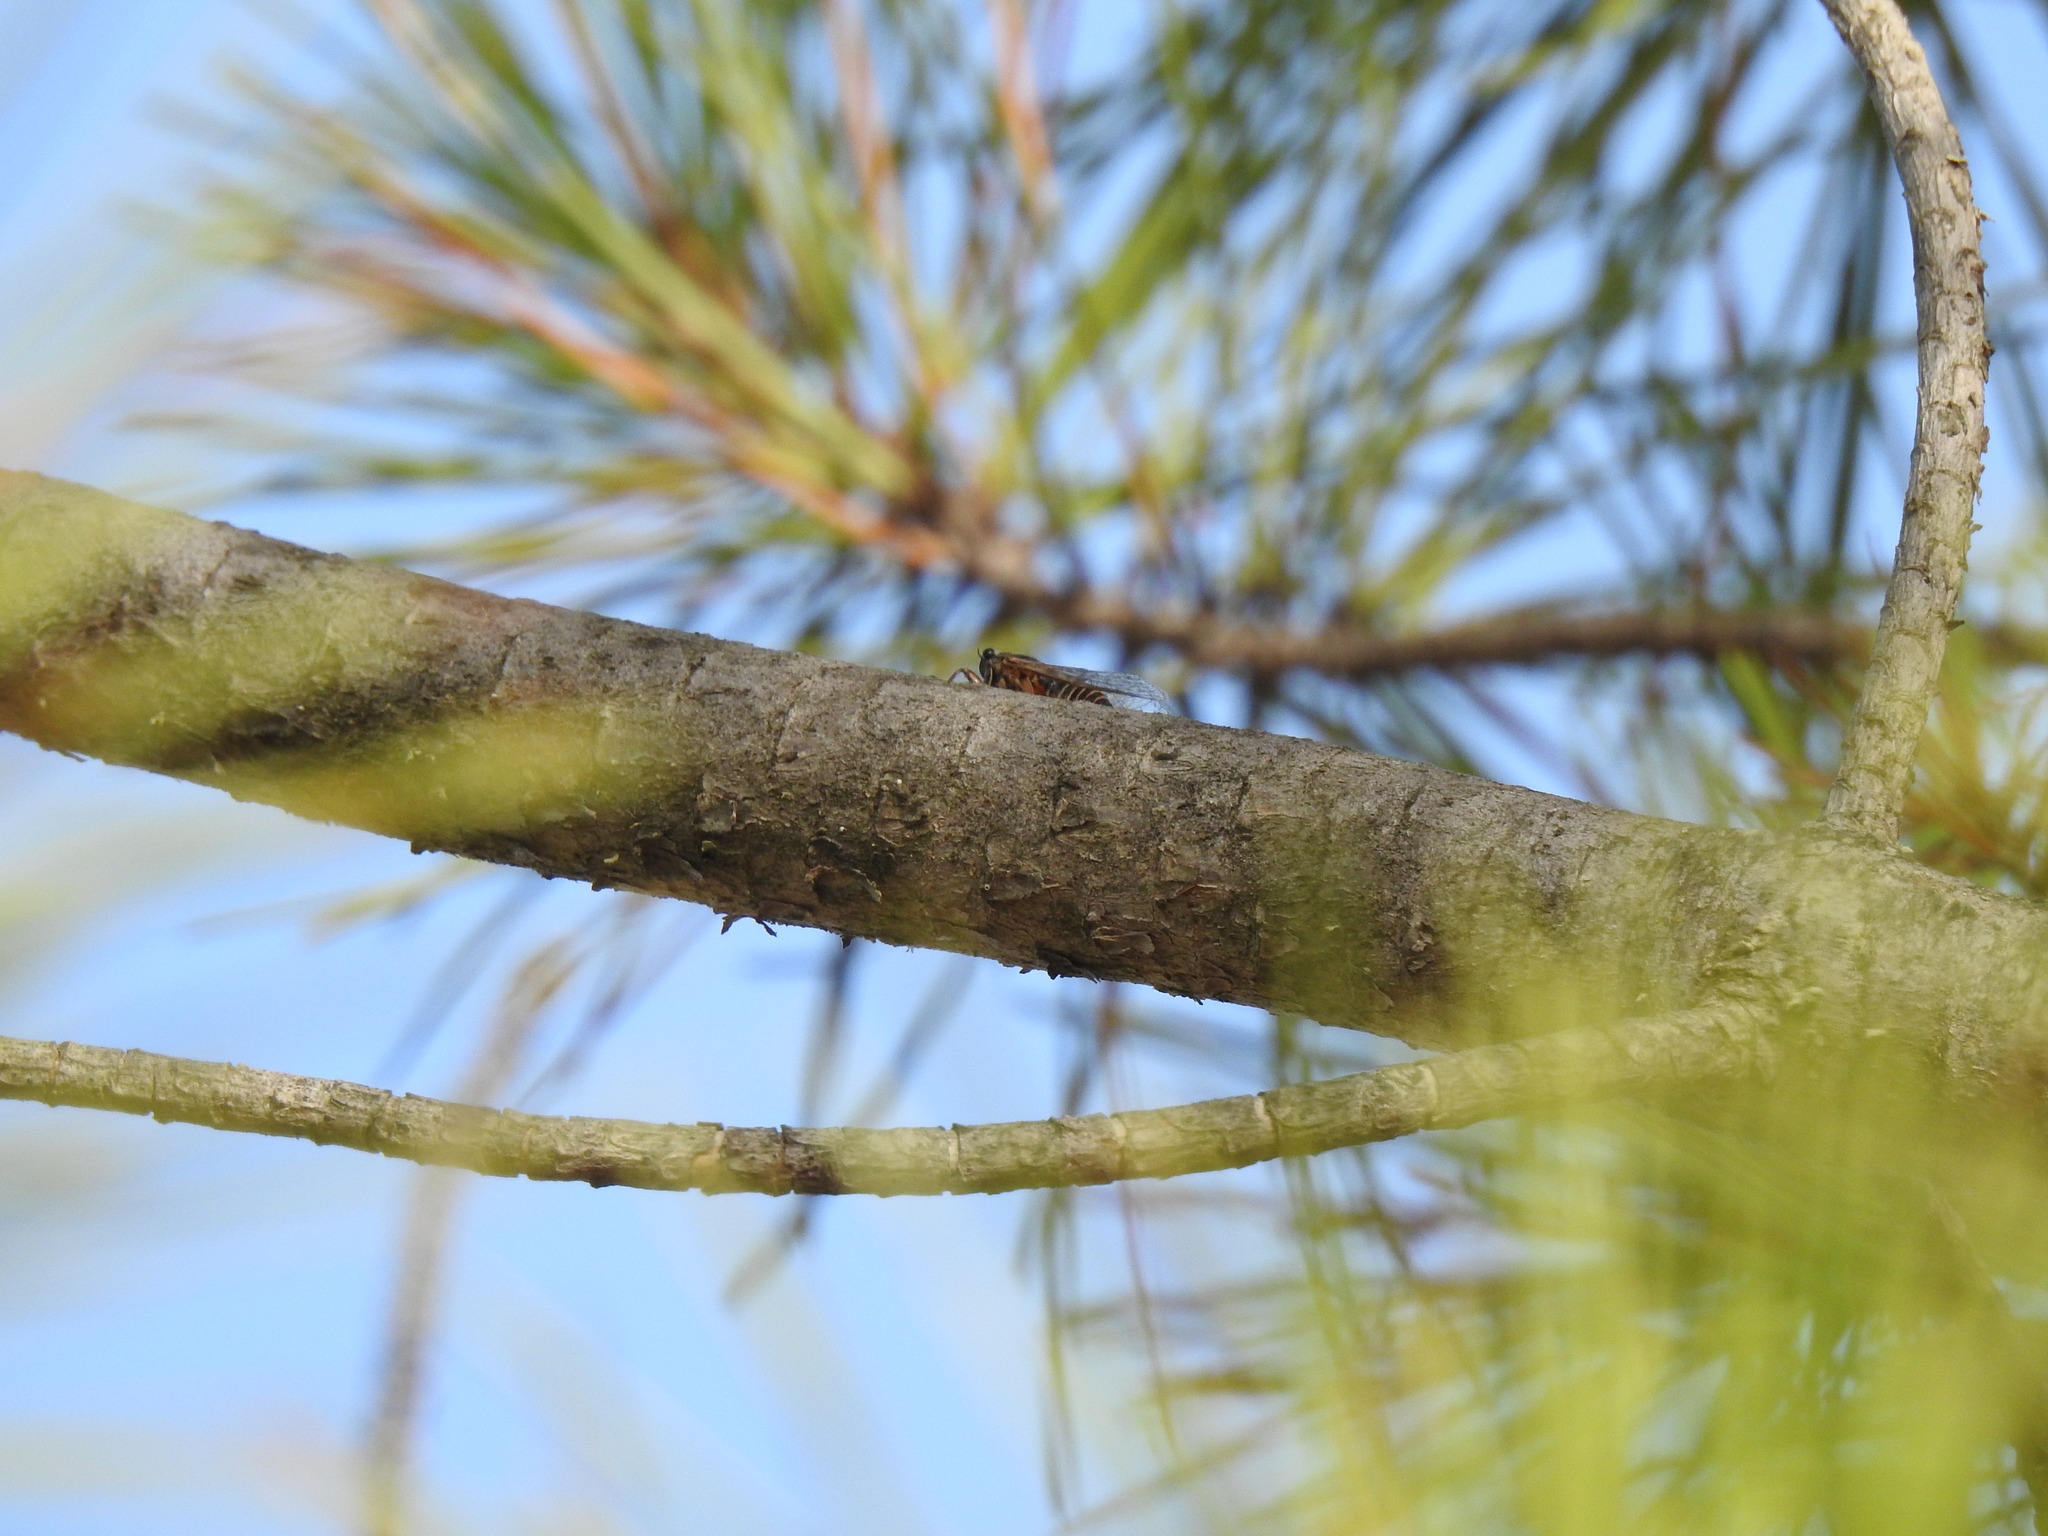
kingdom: Animalia
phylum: Arthropoda
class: Insecta
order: Hemiptera
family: Cicadidae
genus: Tettigettalna
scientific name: Tettigettalna mariae
